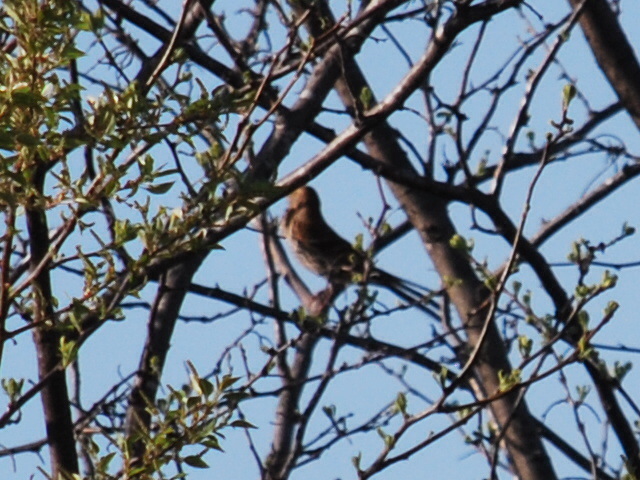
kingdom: Animalia
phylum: Chordata
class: Aves
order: Passeriformes
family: Mimidae
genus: Toxostoma
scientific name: Toxostoma rufum
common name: Brown thrasher
